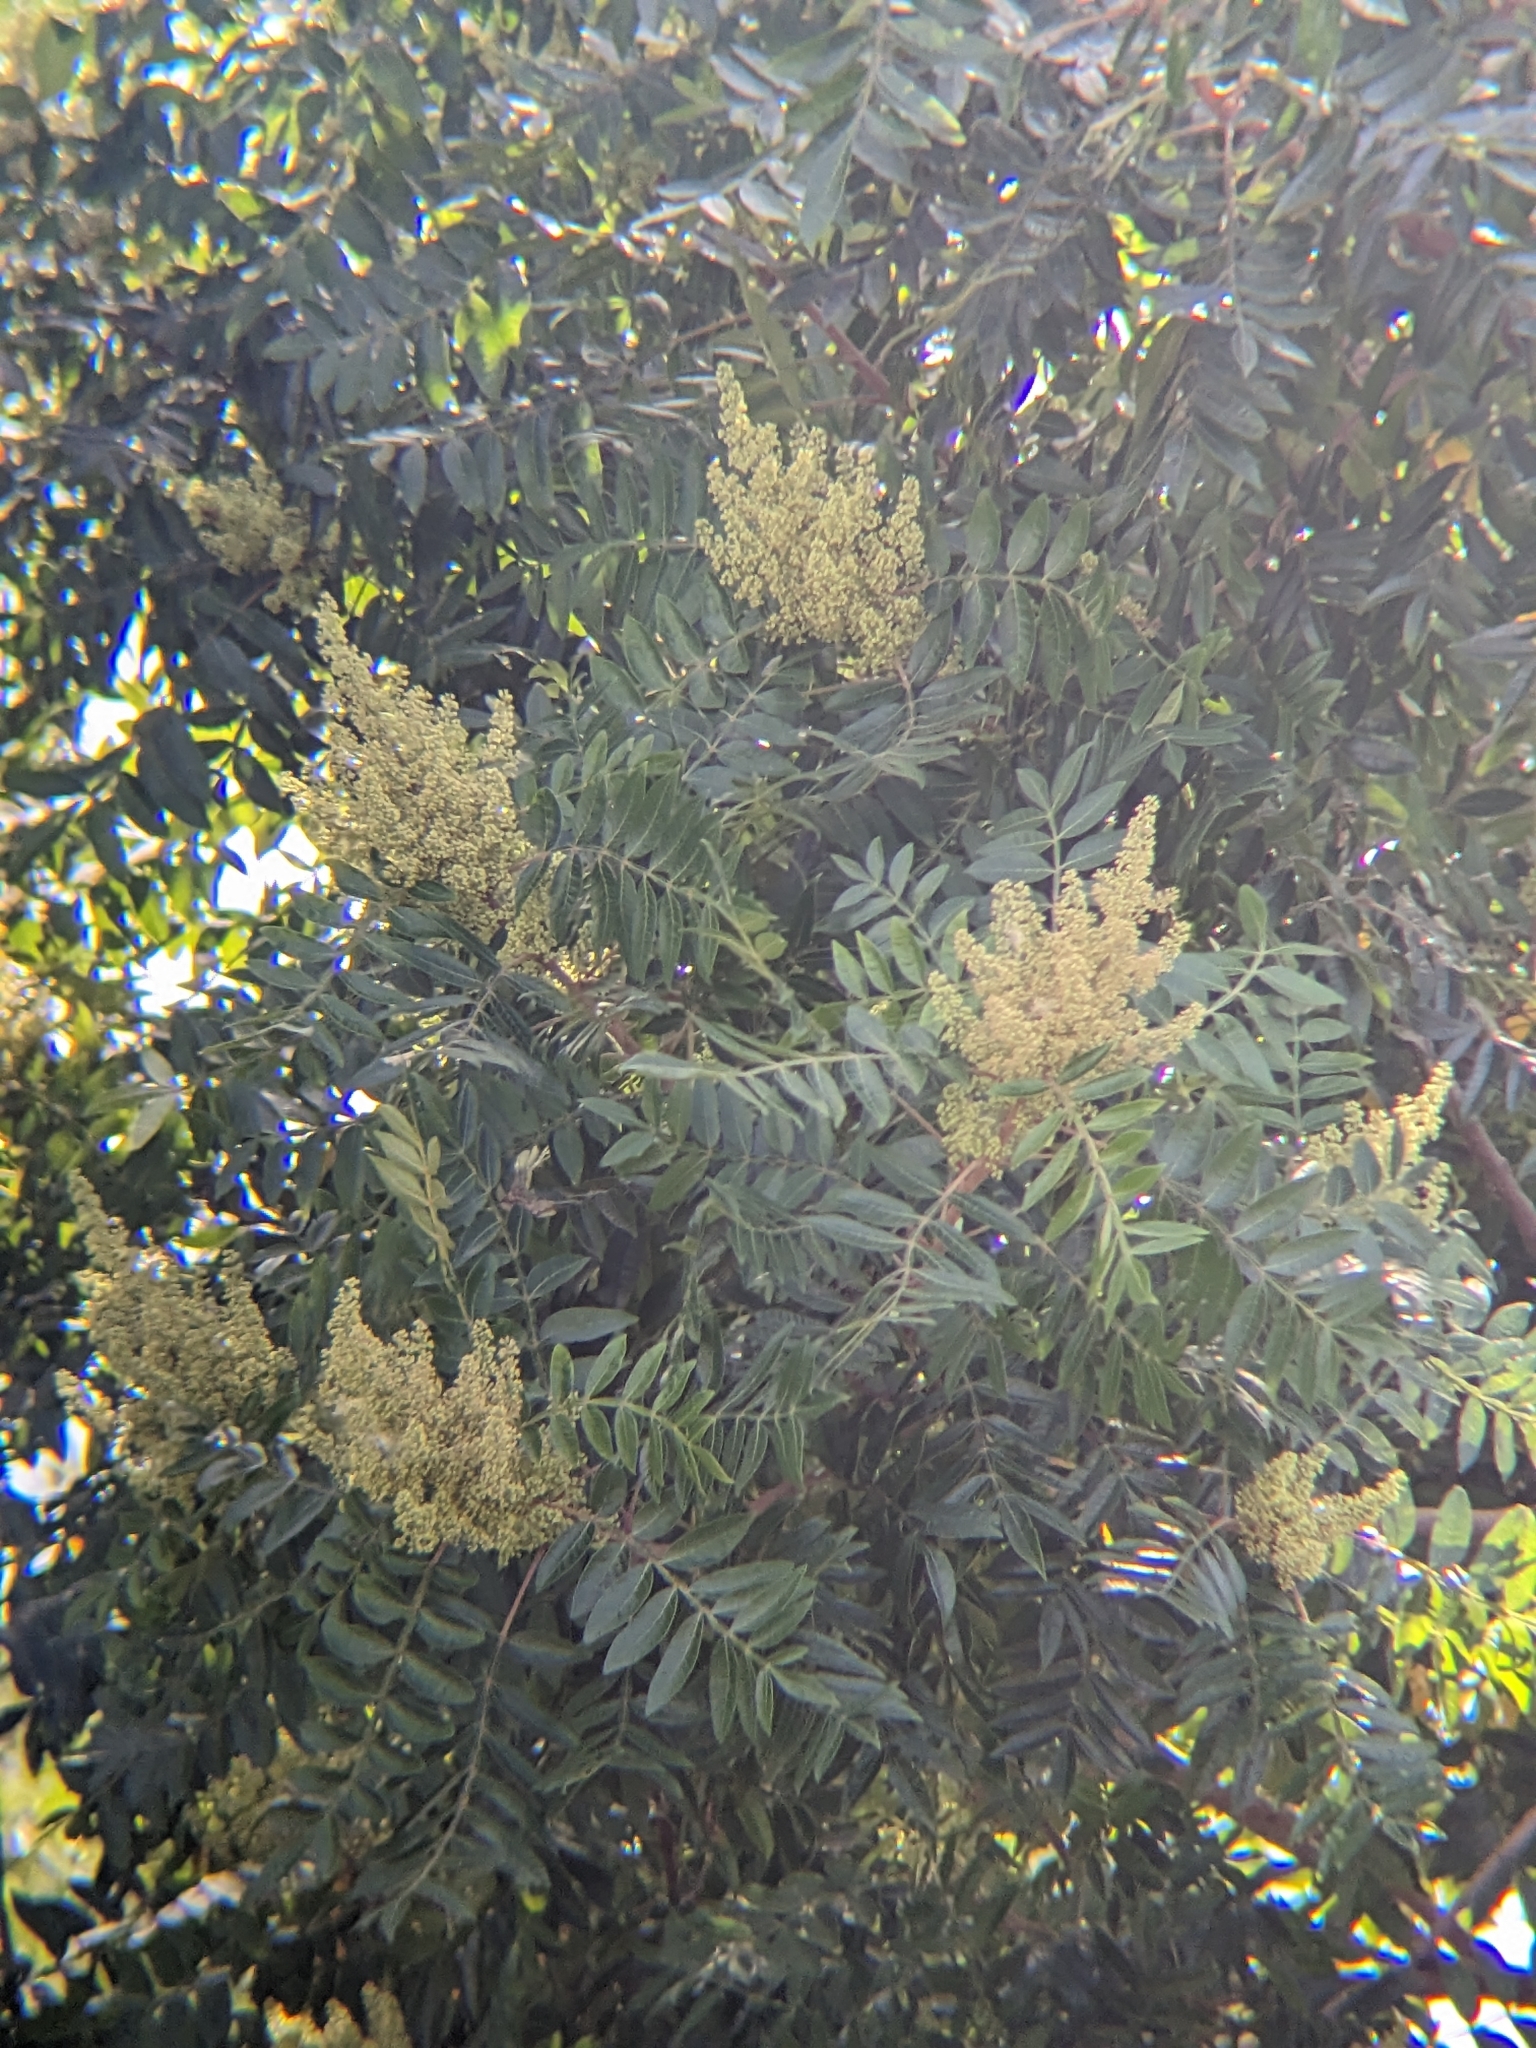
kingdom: Plantae
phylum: Tracheophyta
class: Magnoliopsida
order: Sapindales
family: Anacardiaceae
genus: Rhus
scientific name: Rhus copallina
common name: Shining sumac
